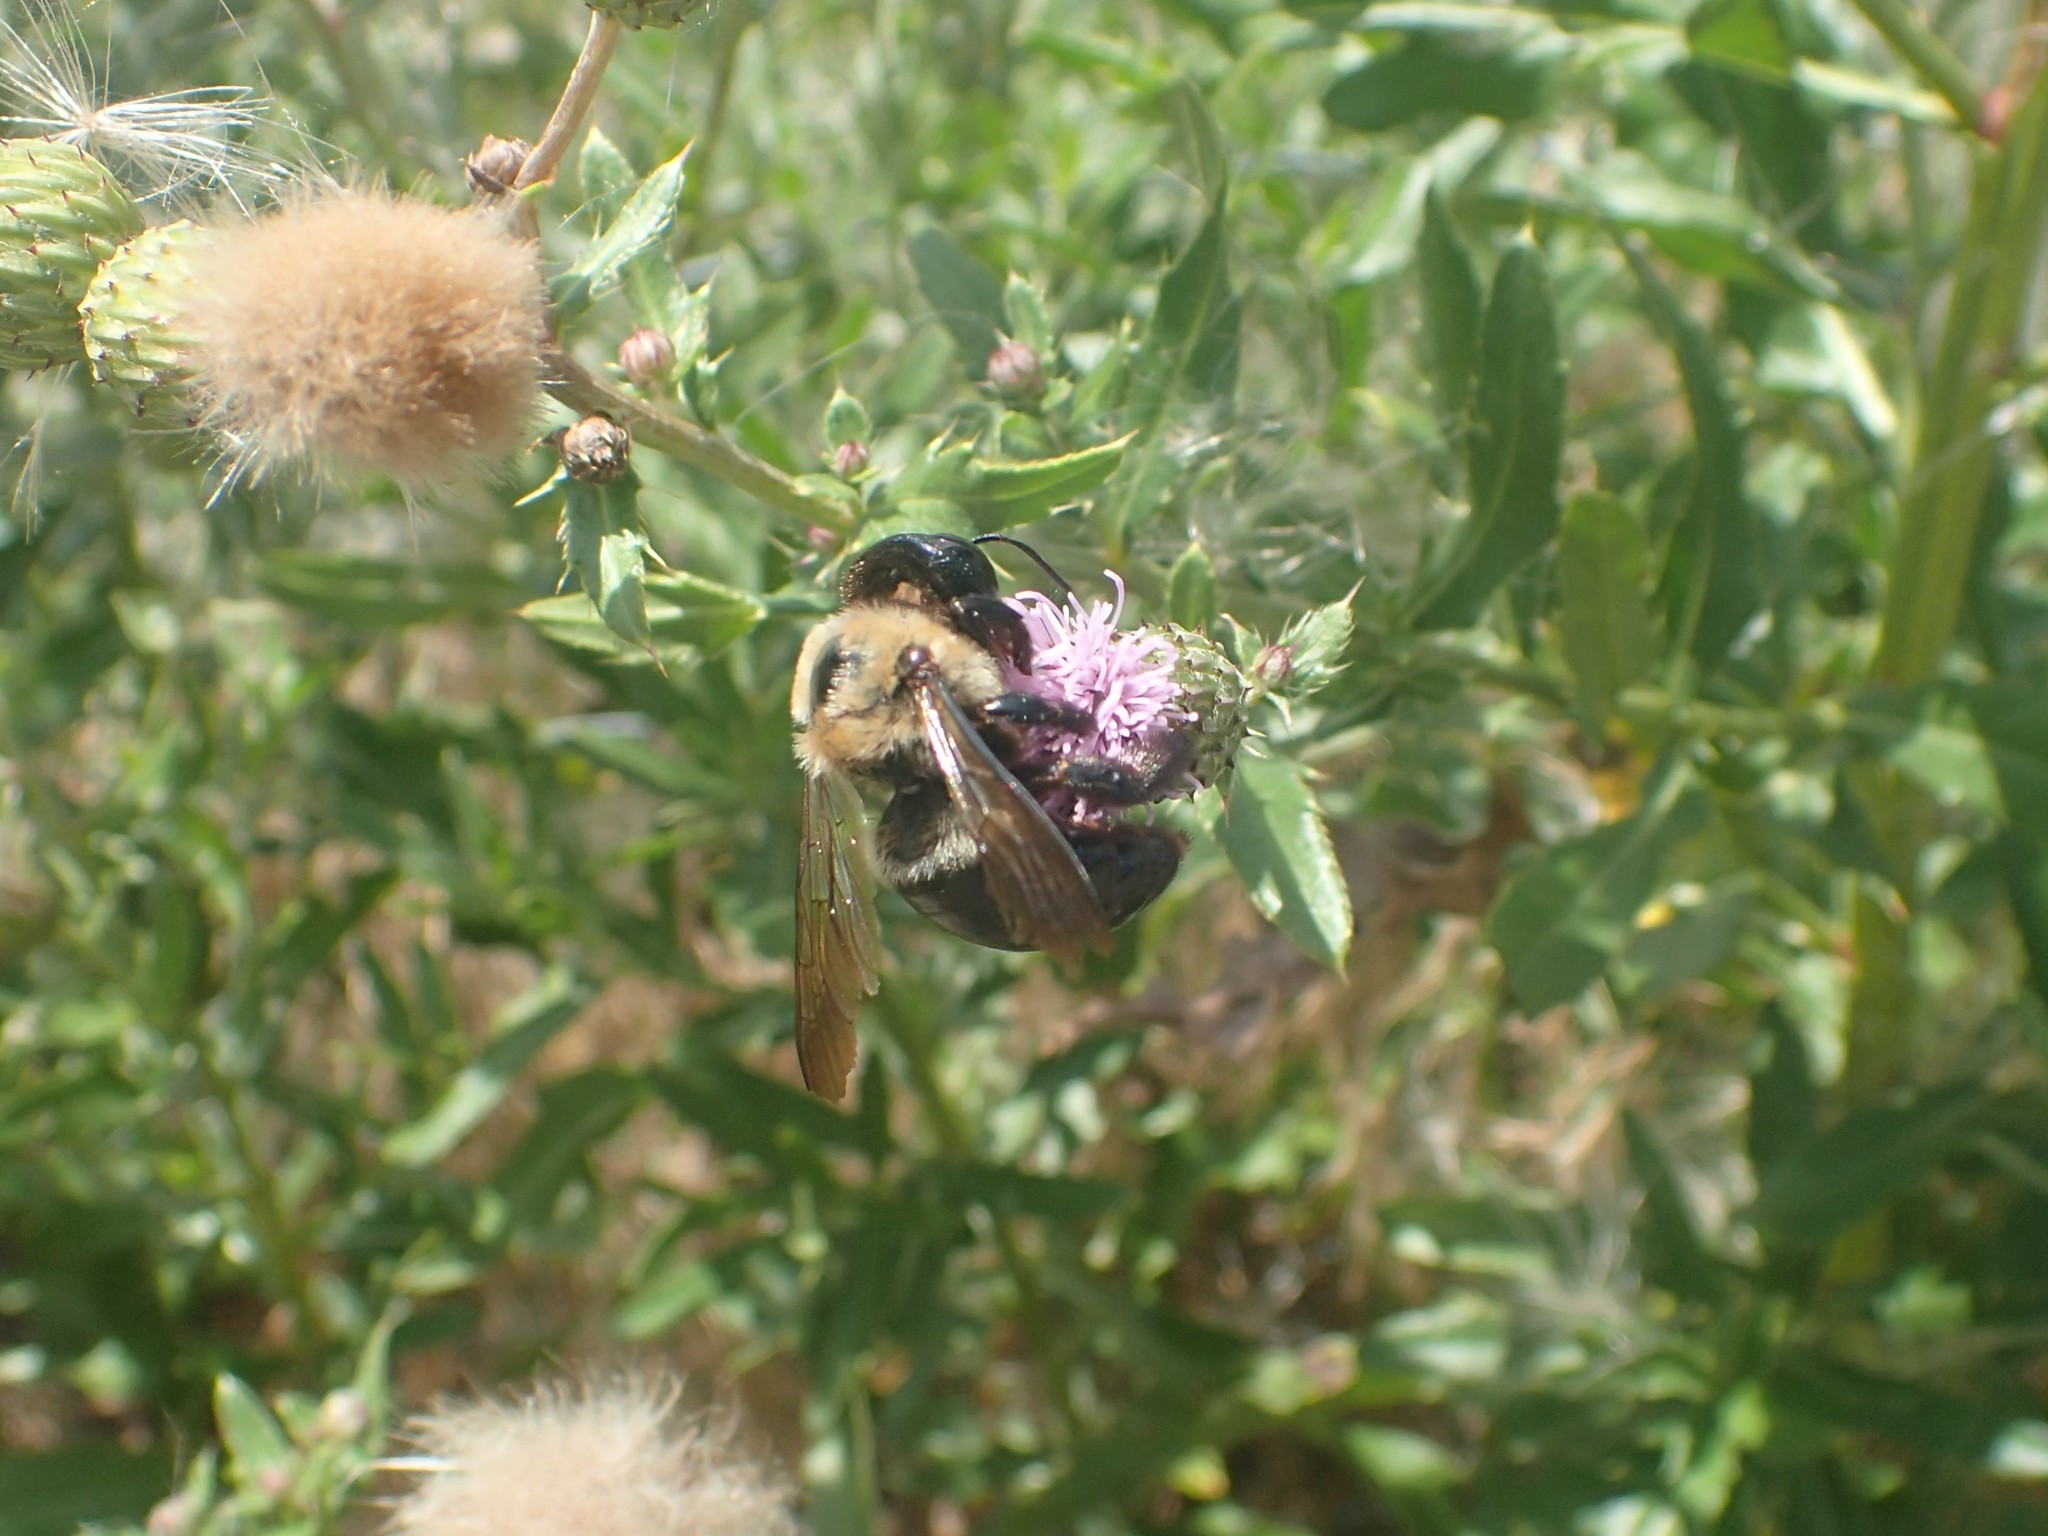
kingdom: Animalia
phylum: Arthropoda
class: Insecta
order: Hymenoptera
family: Apidae
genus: Xylocopa
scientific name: Xylocopa virginica
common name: Carpenter bee
